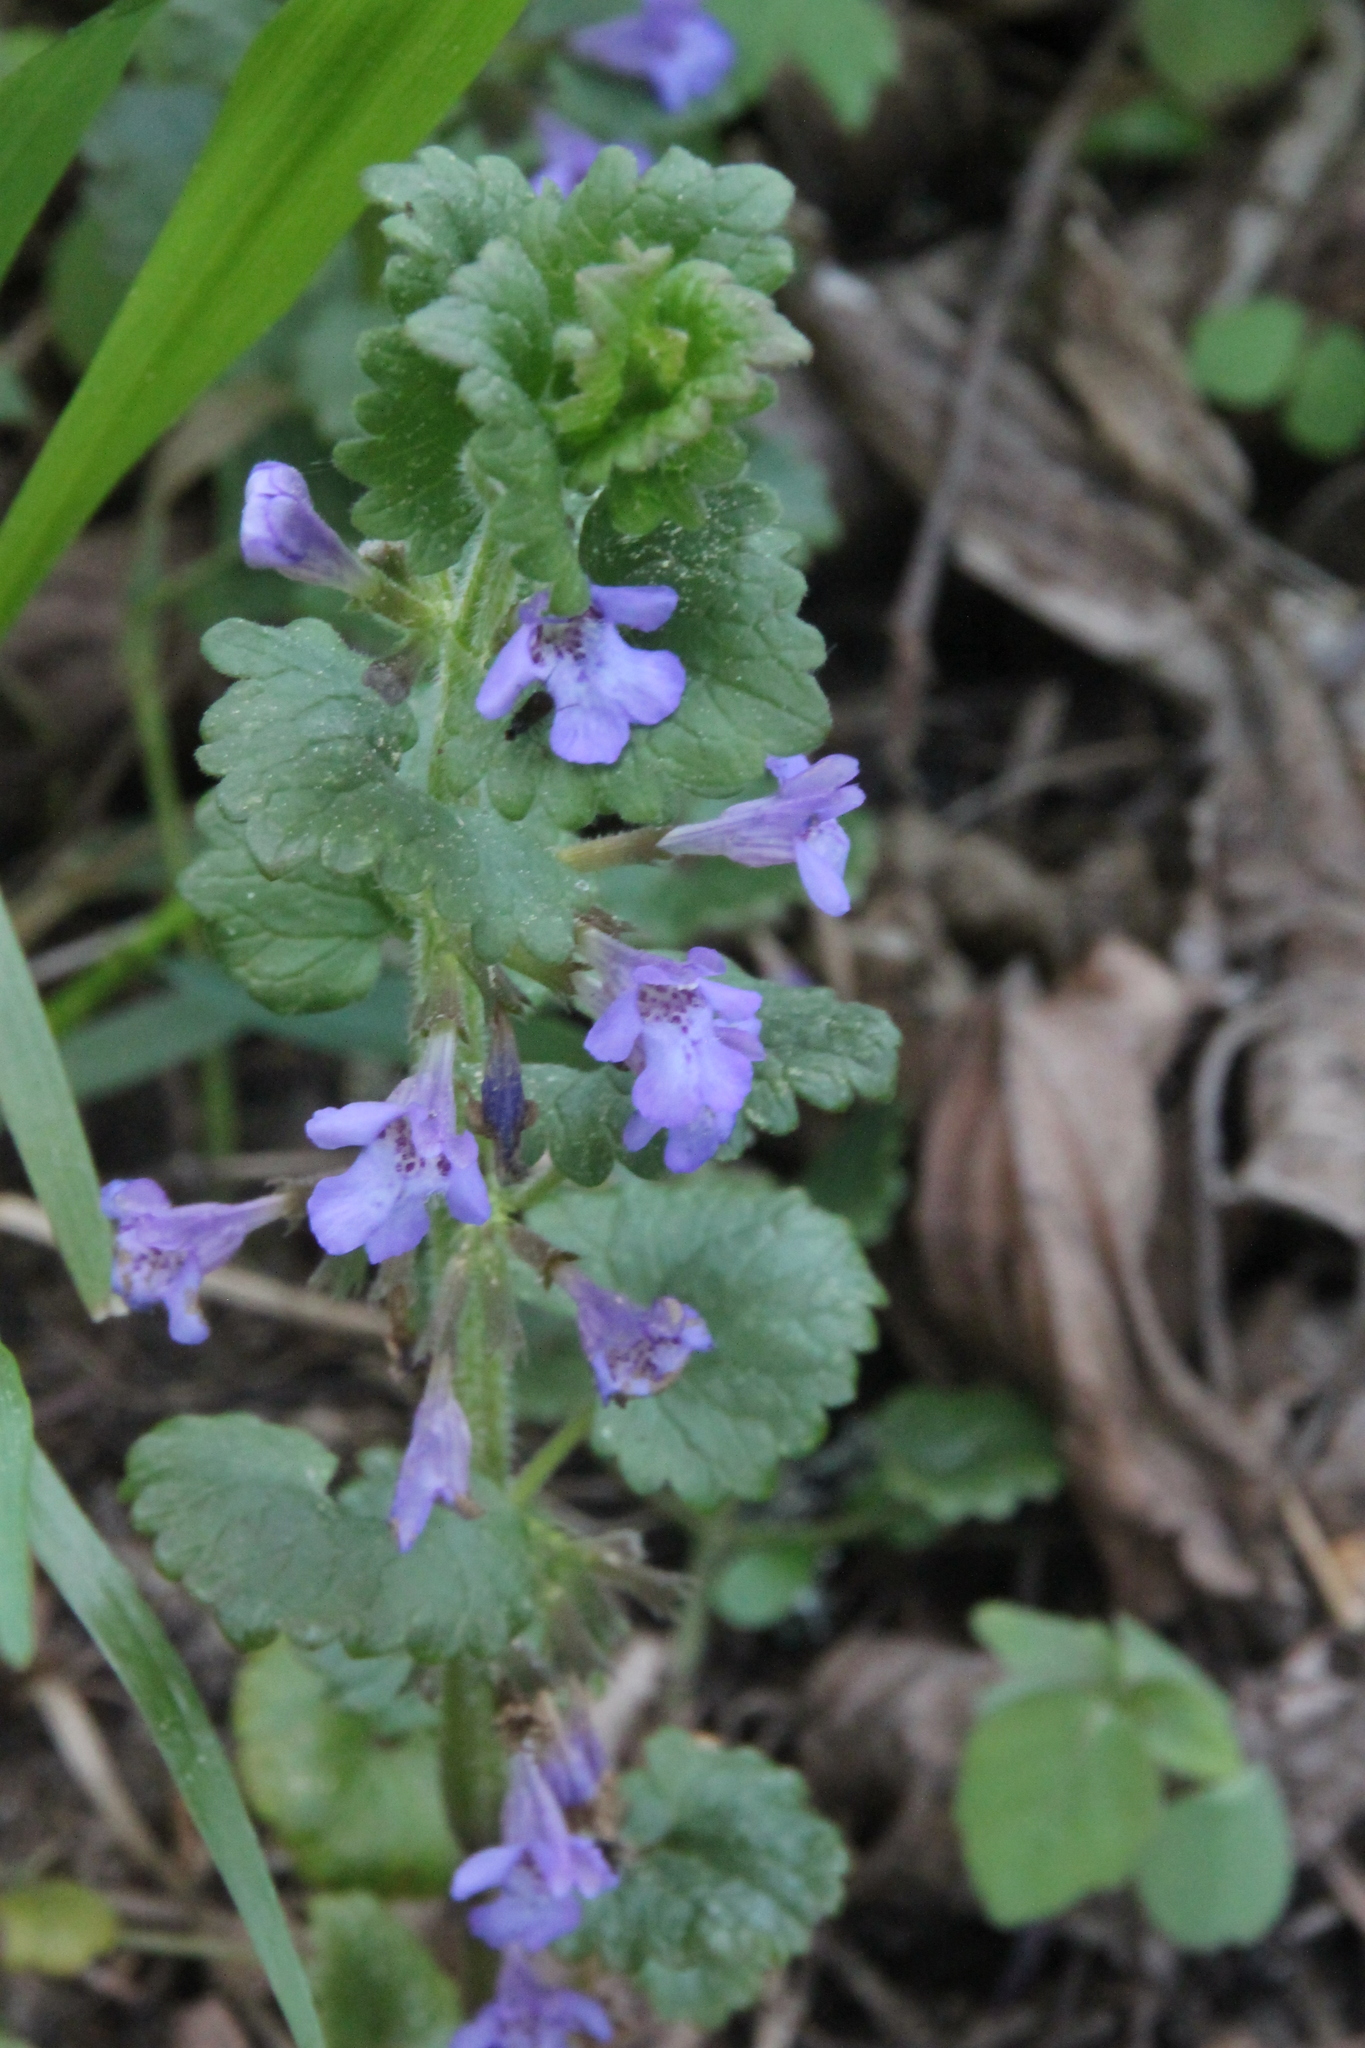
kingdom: Plantae
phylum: Tracheophyta
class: Magnoliopsida
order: Lamiales
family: Lamiaceae
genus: Glechoma
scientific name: Glechoma hederacea
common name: Ground ivy
